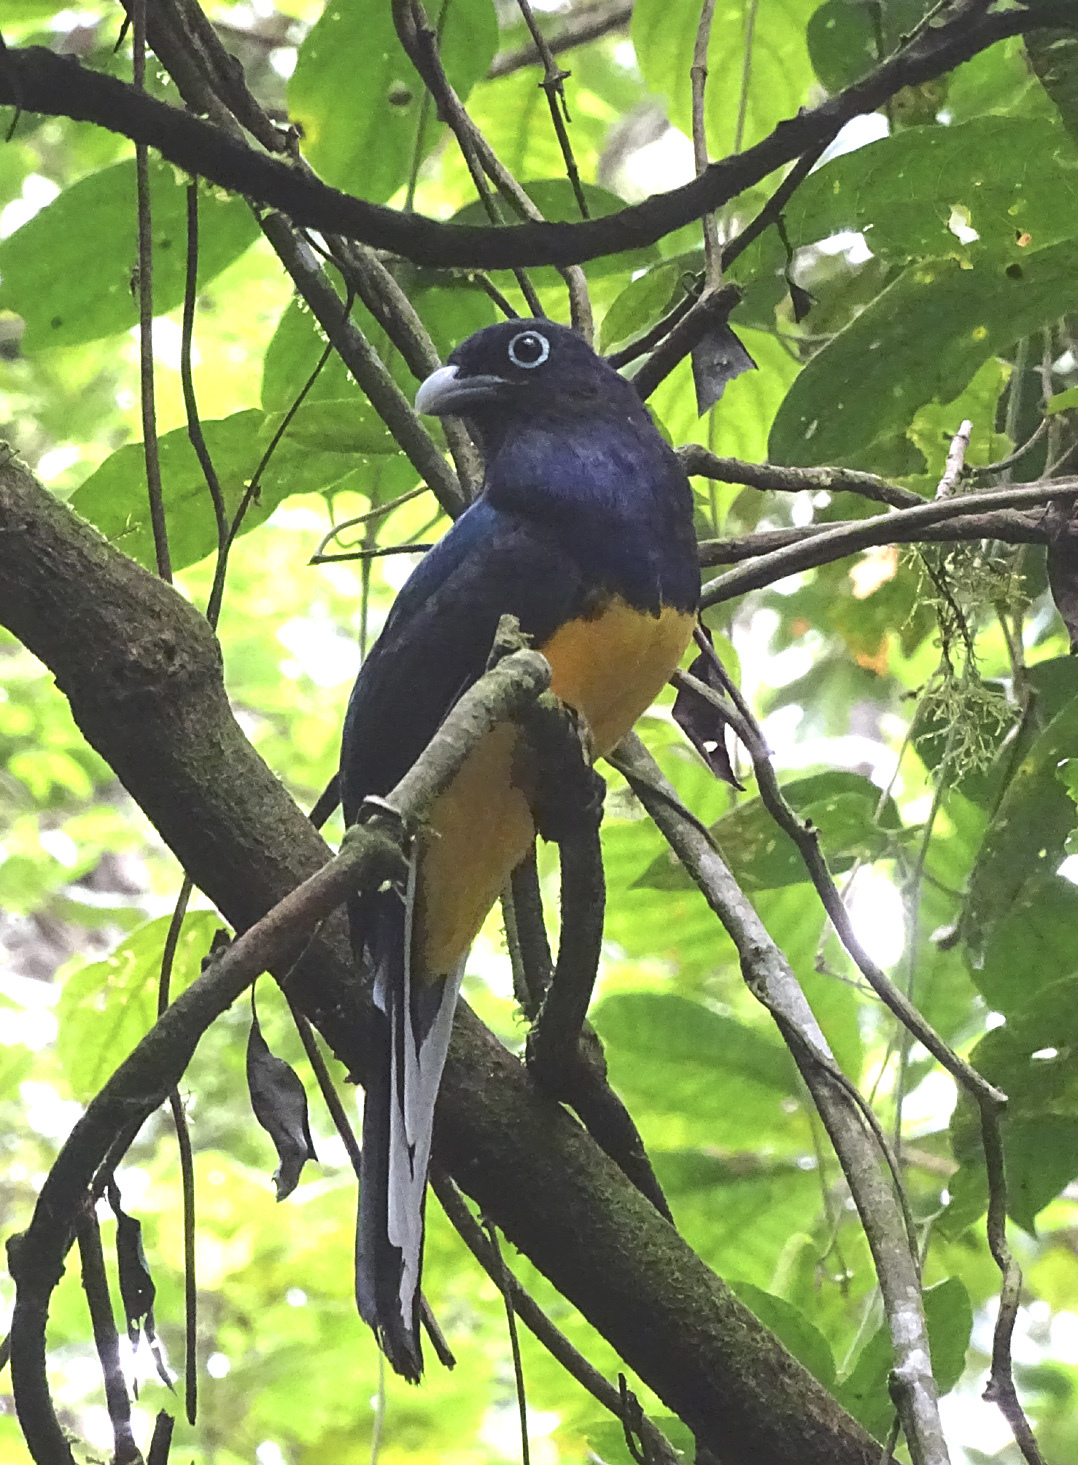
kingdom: Animalia
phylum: Chordata
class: Aves
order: Trogoniformes
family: Trogonidae
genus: Trogon
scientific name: Trogon viridis
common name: Green-backed trogon
